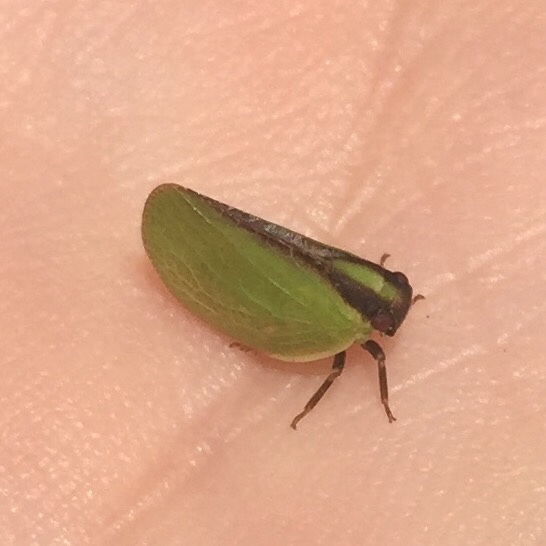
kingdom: Animalia
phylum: Arthropoda
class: Insecta
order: Hemiptera
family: Acanaloniidae
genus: Acanalonia
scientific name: Acanalonia bivittata
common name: Two-striped planthopper
